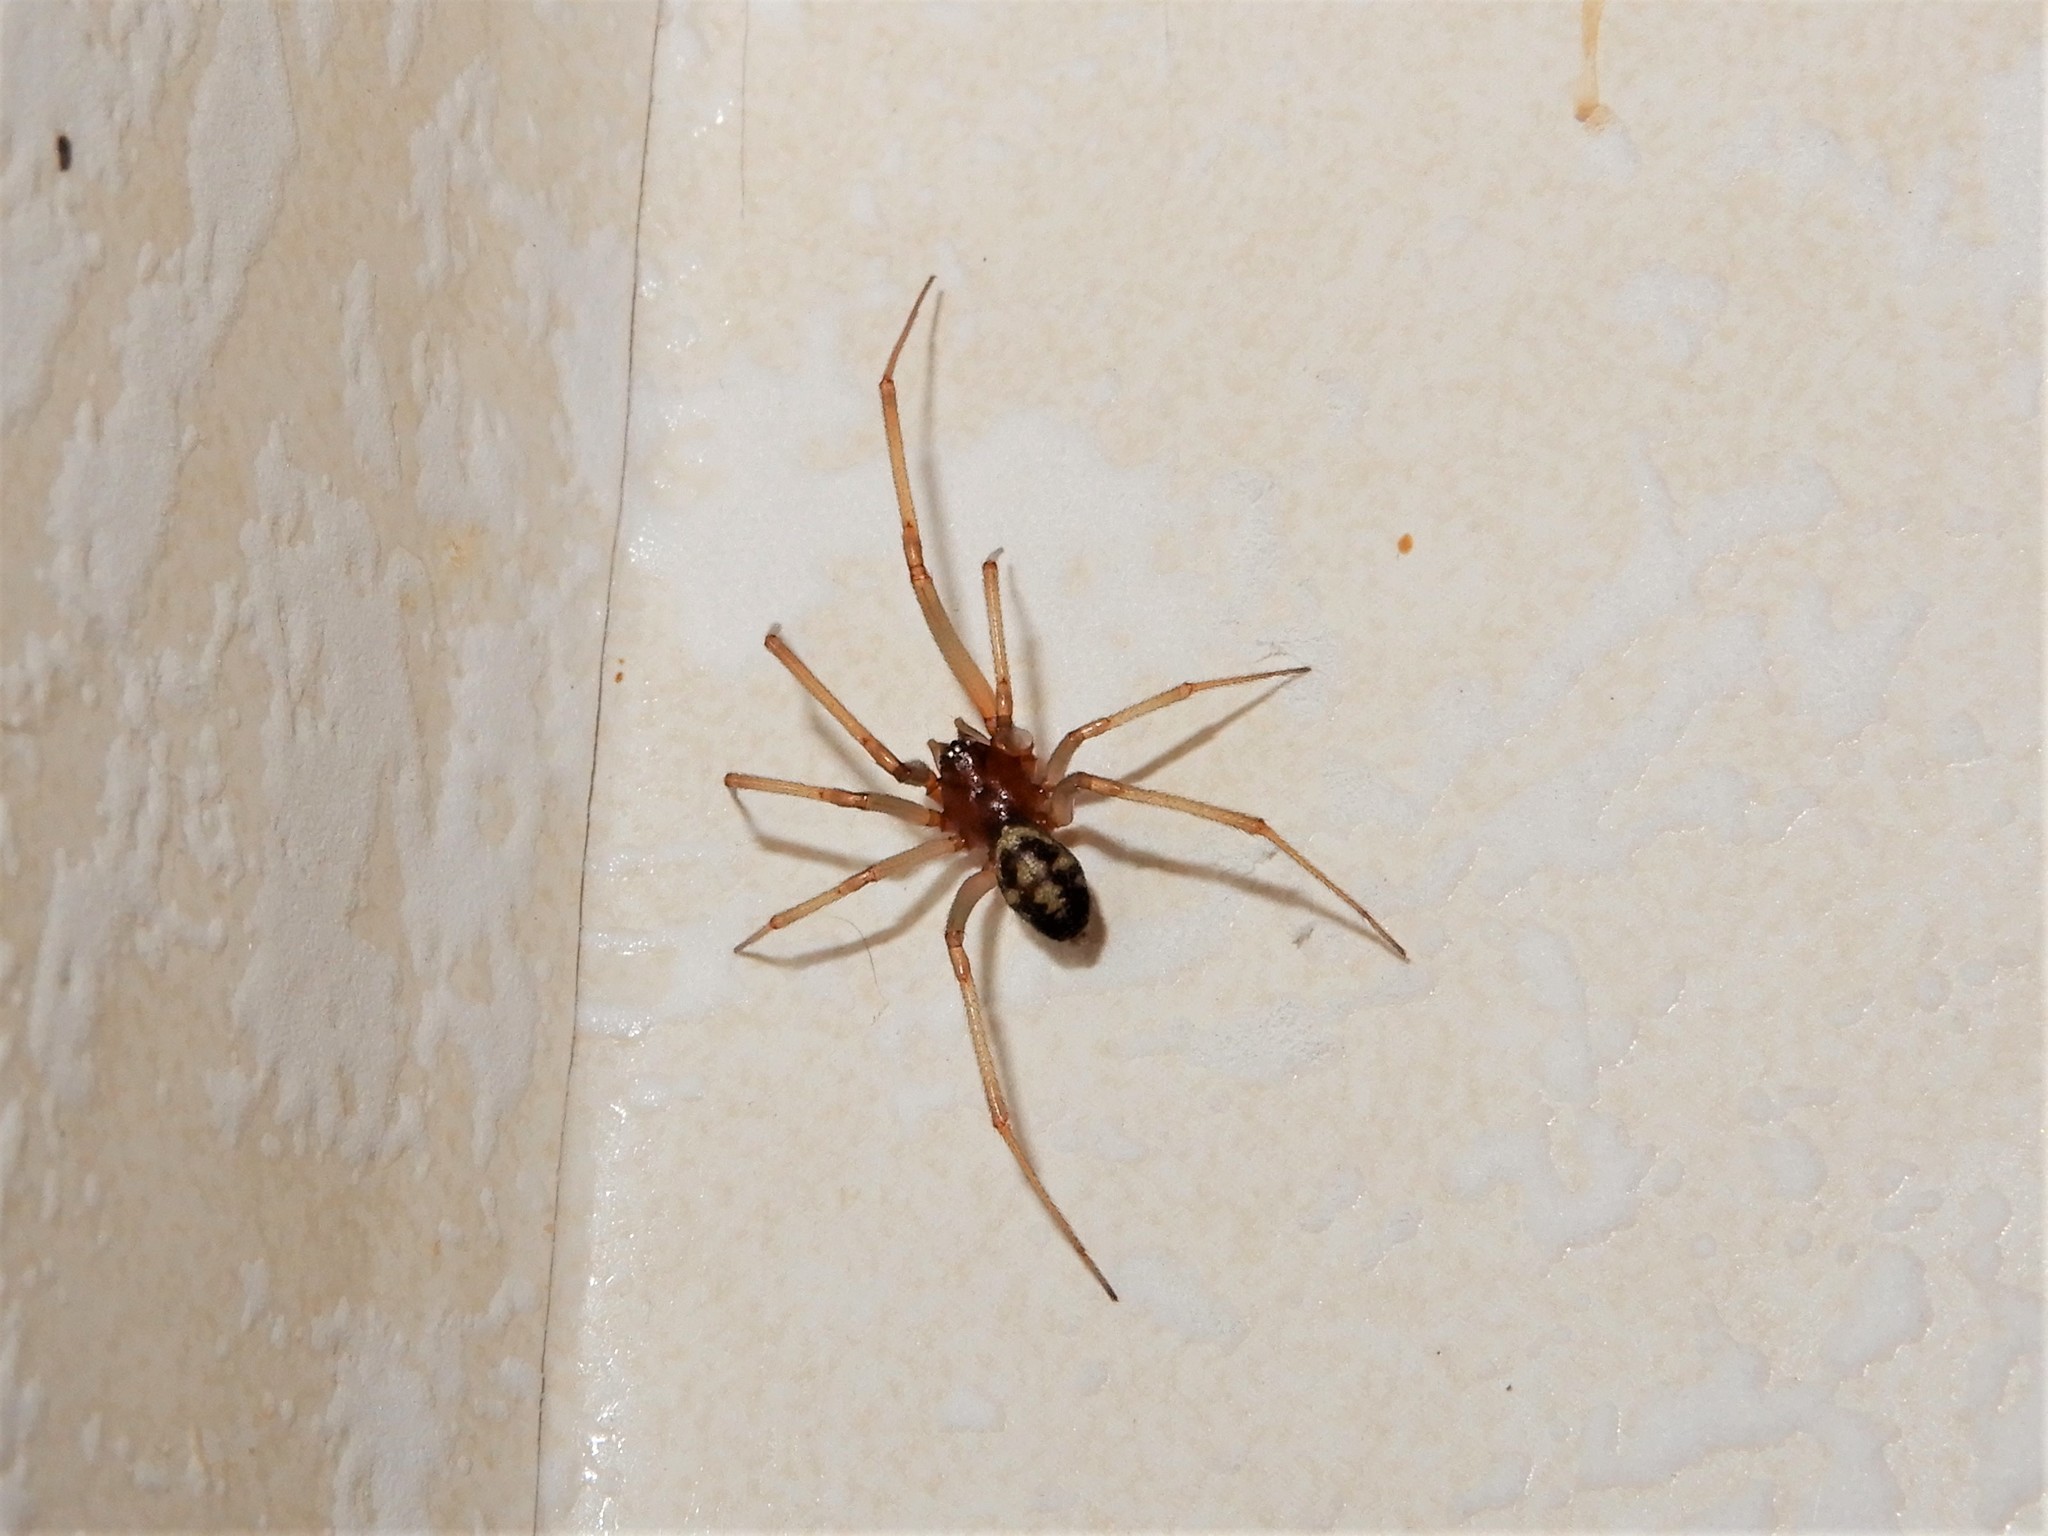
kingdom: Animalia
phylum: Arthropoda
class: Arachnida
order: Araneae
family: Theridiidae
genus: Steatoda
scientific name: Steatoda grossa
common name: False black widow
